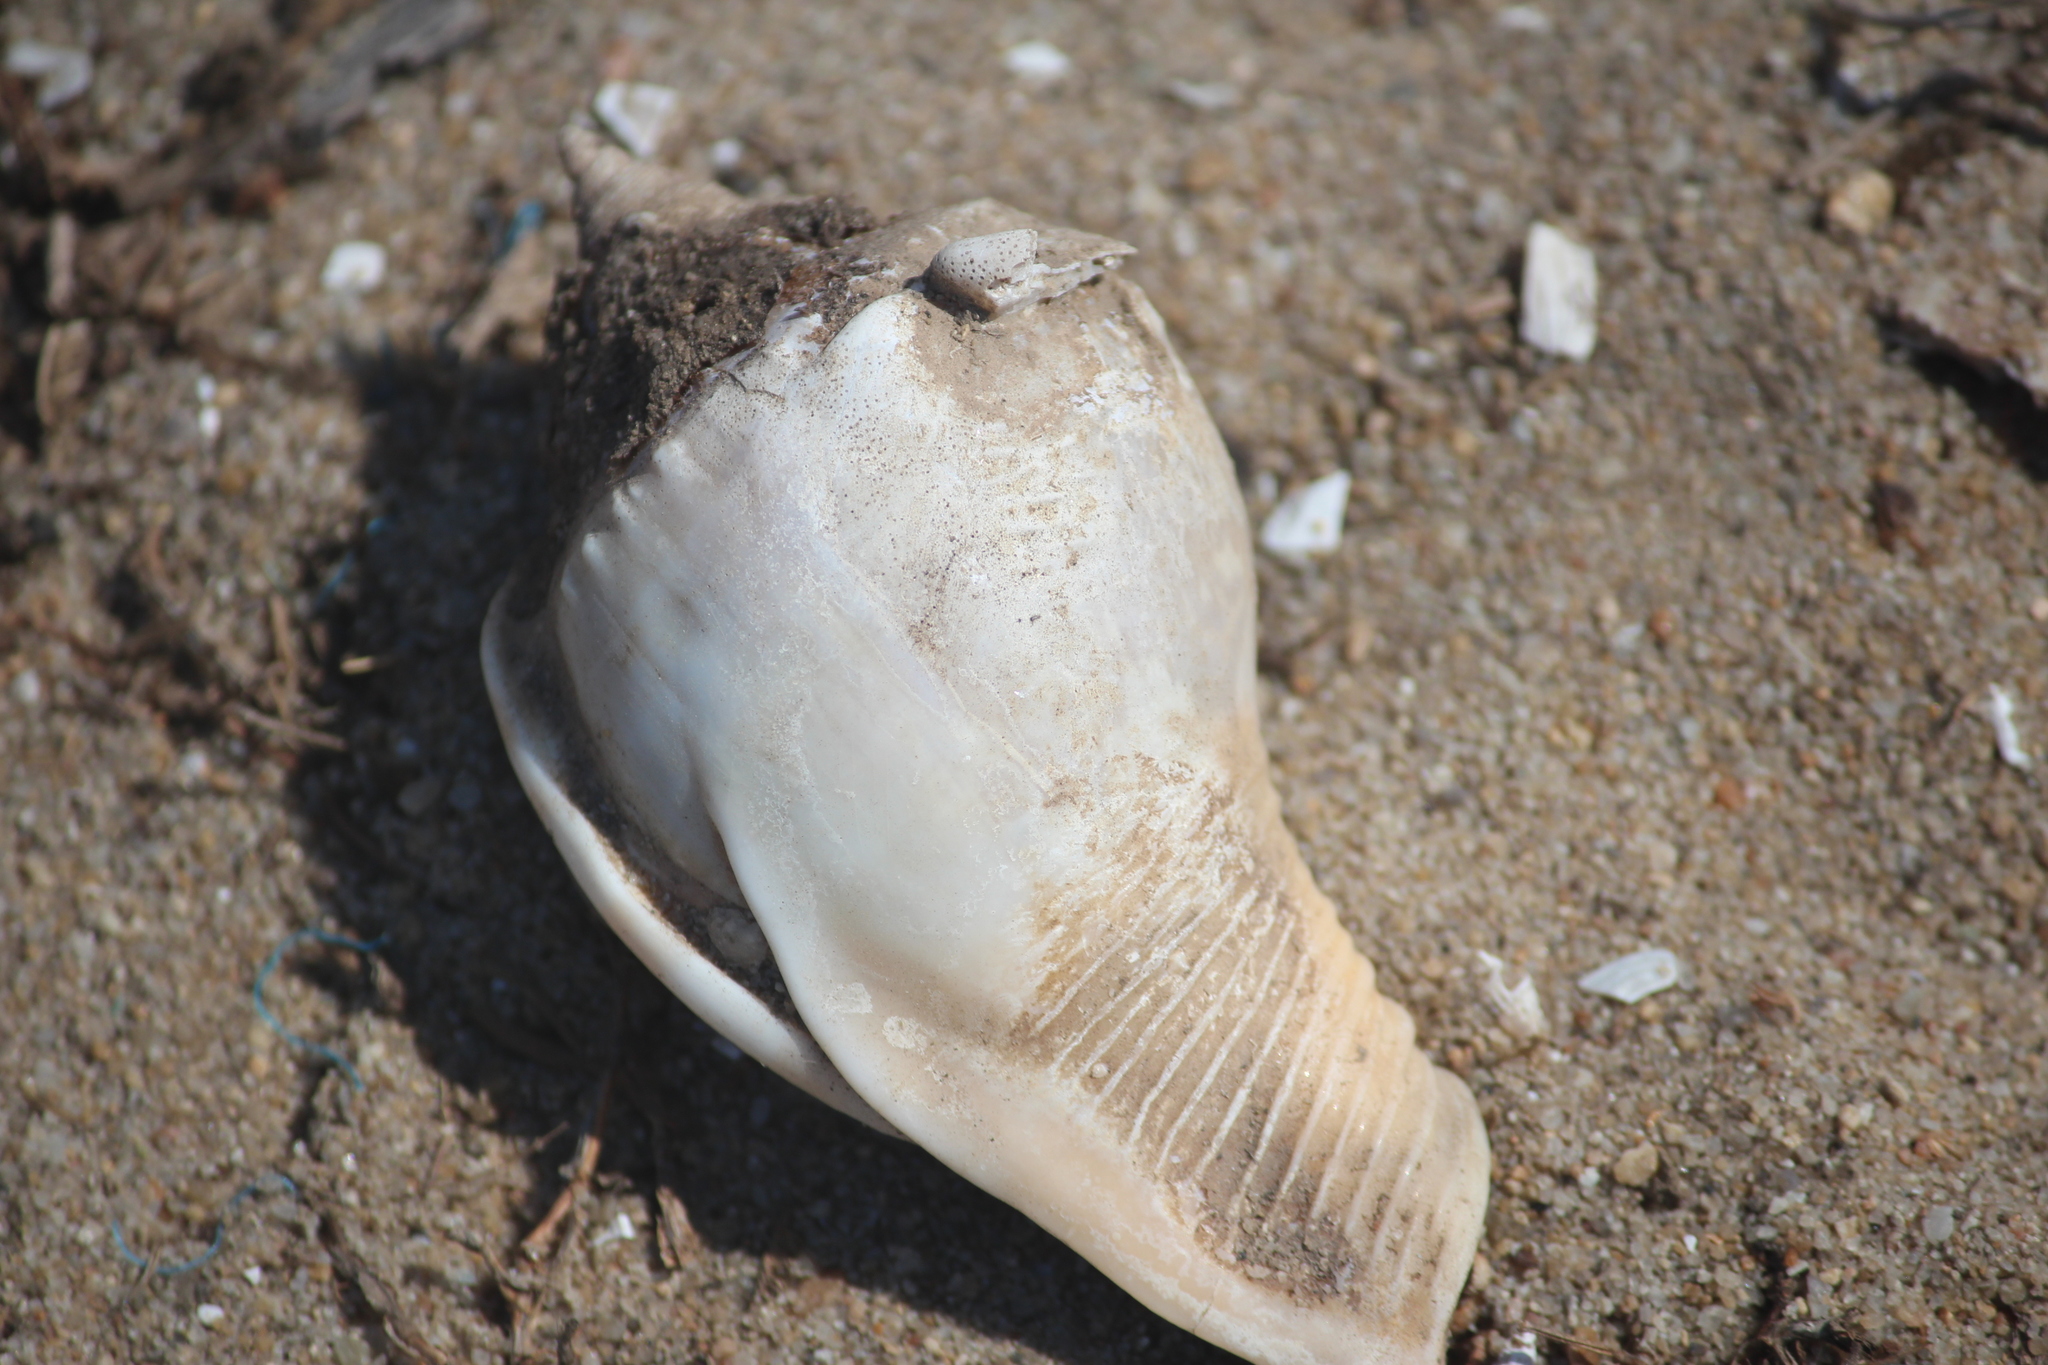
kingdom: Animalia
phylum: Mollusca
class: Gastropoda
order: Littorinimorpha
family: Cassidae
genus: Phalium
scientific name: Phalium glaucum
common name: Grey bonnet
